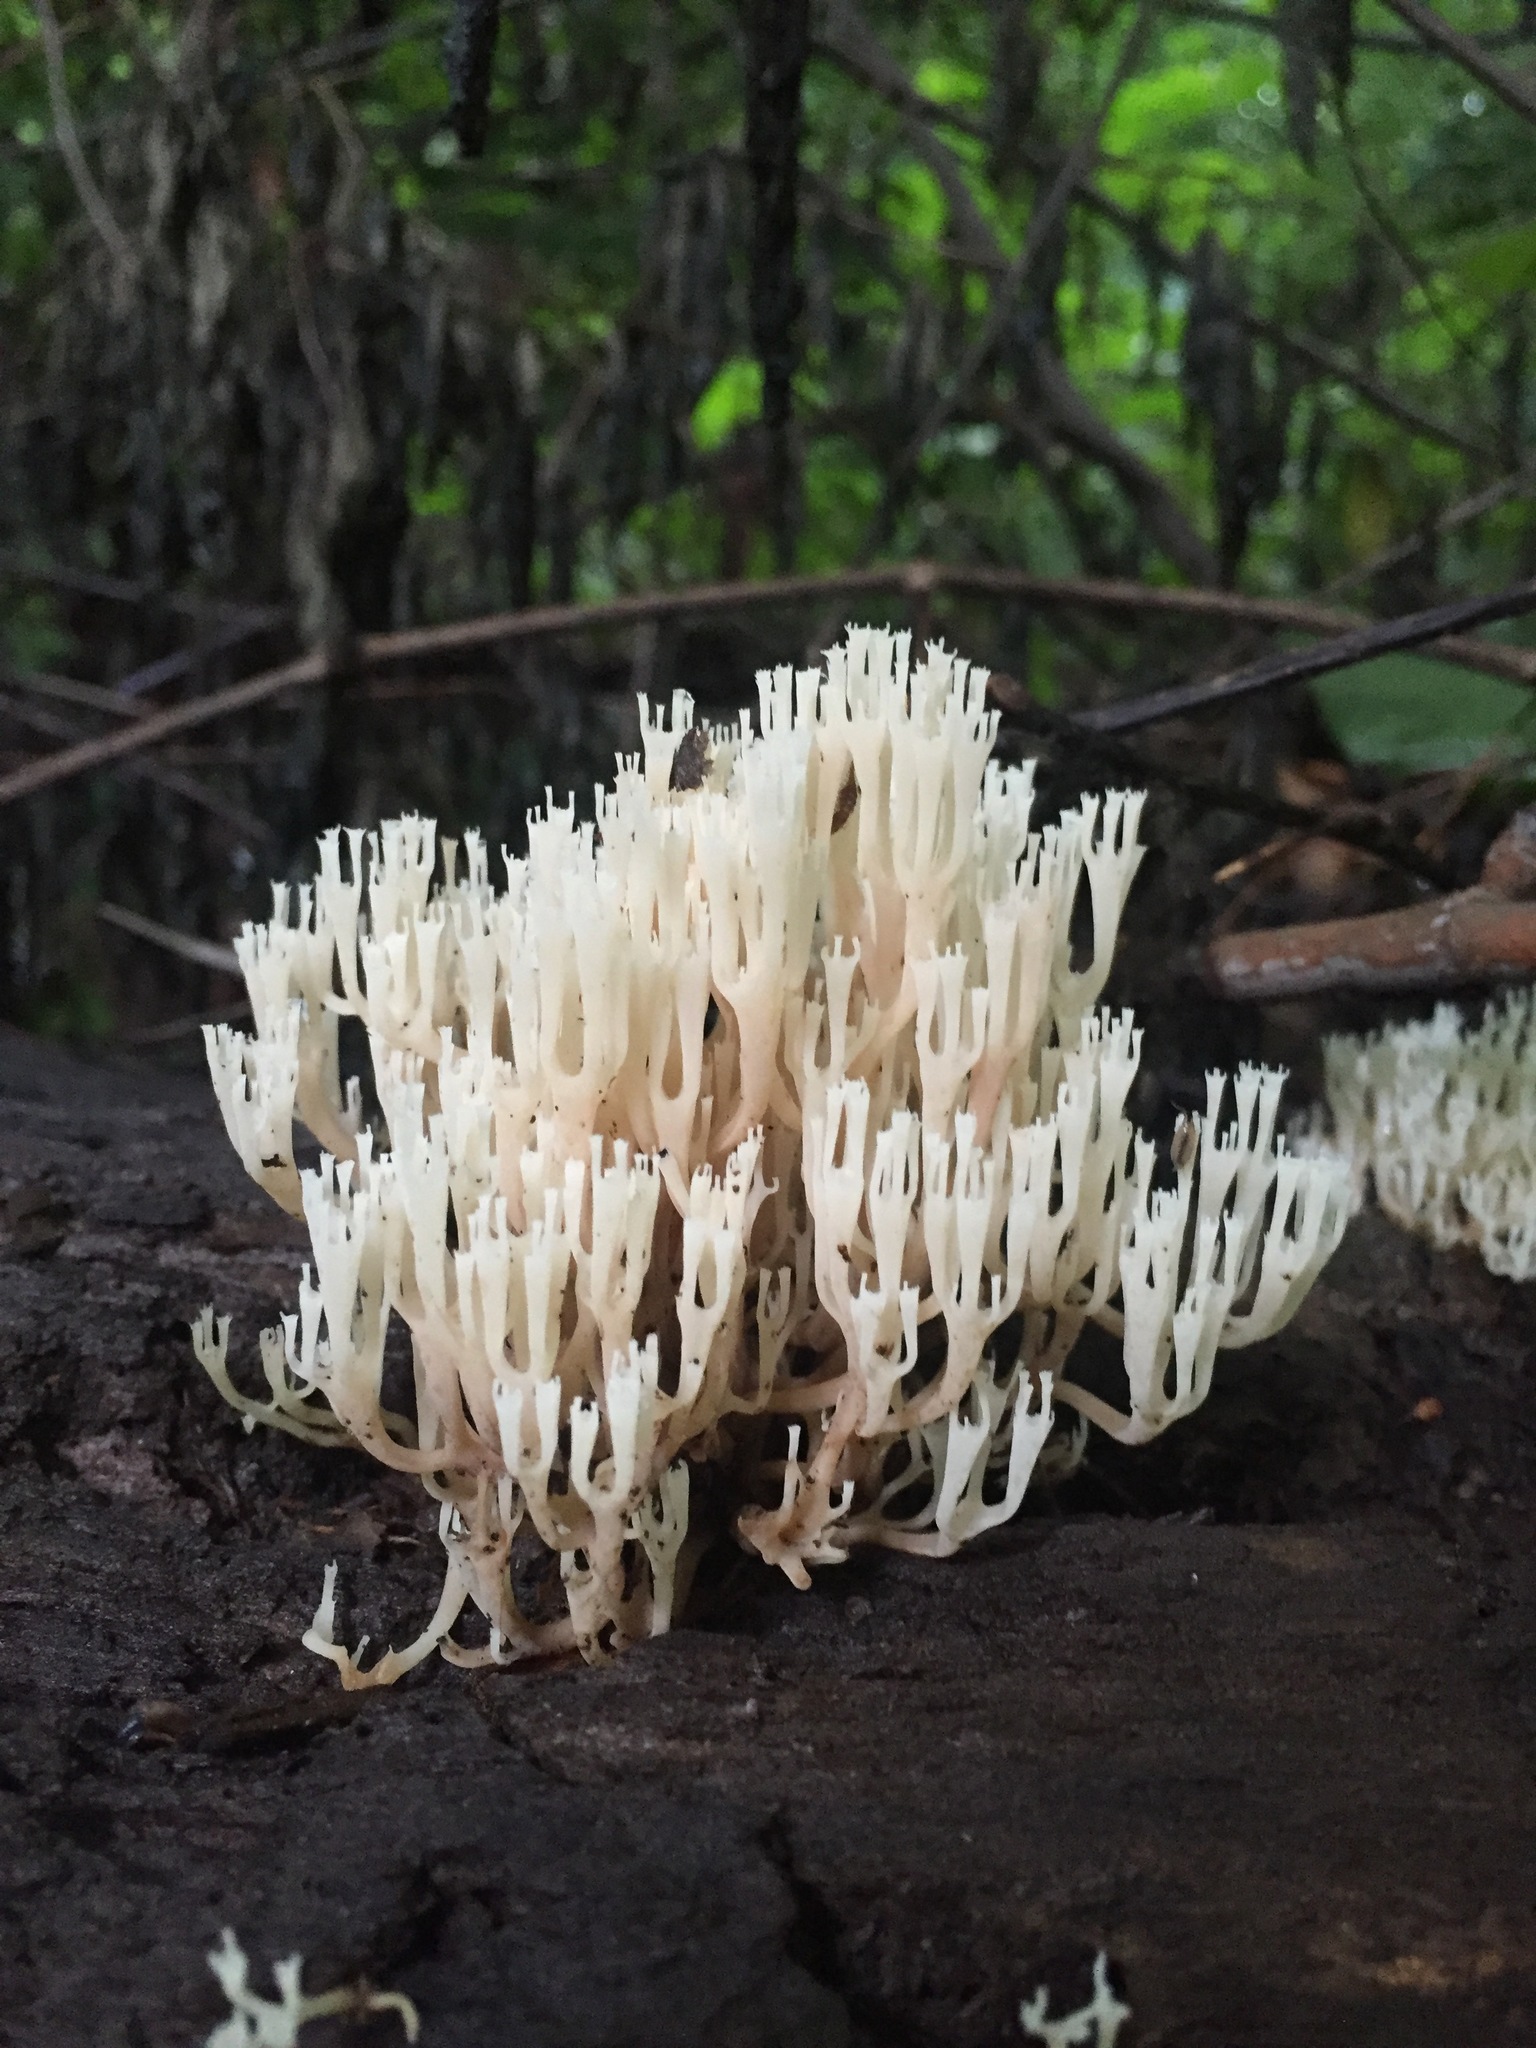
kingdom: Fungi
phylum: Basidiomycota
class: Agaricomycetes
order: Russulales
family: Auriscalpiaceae
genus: Artomyces
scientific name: Artomyces pyxidatus
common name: Crown-tipped coral fungus
